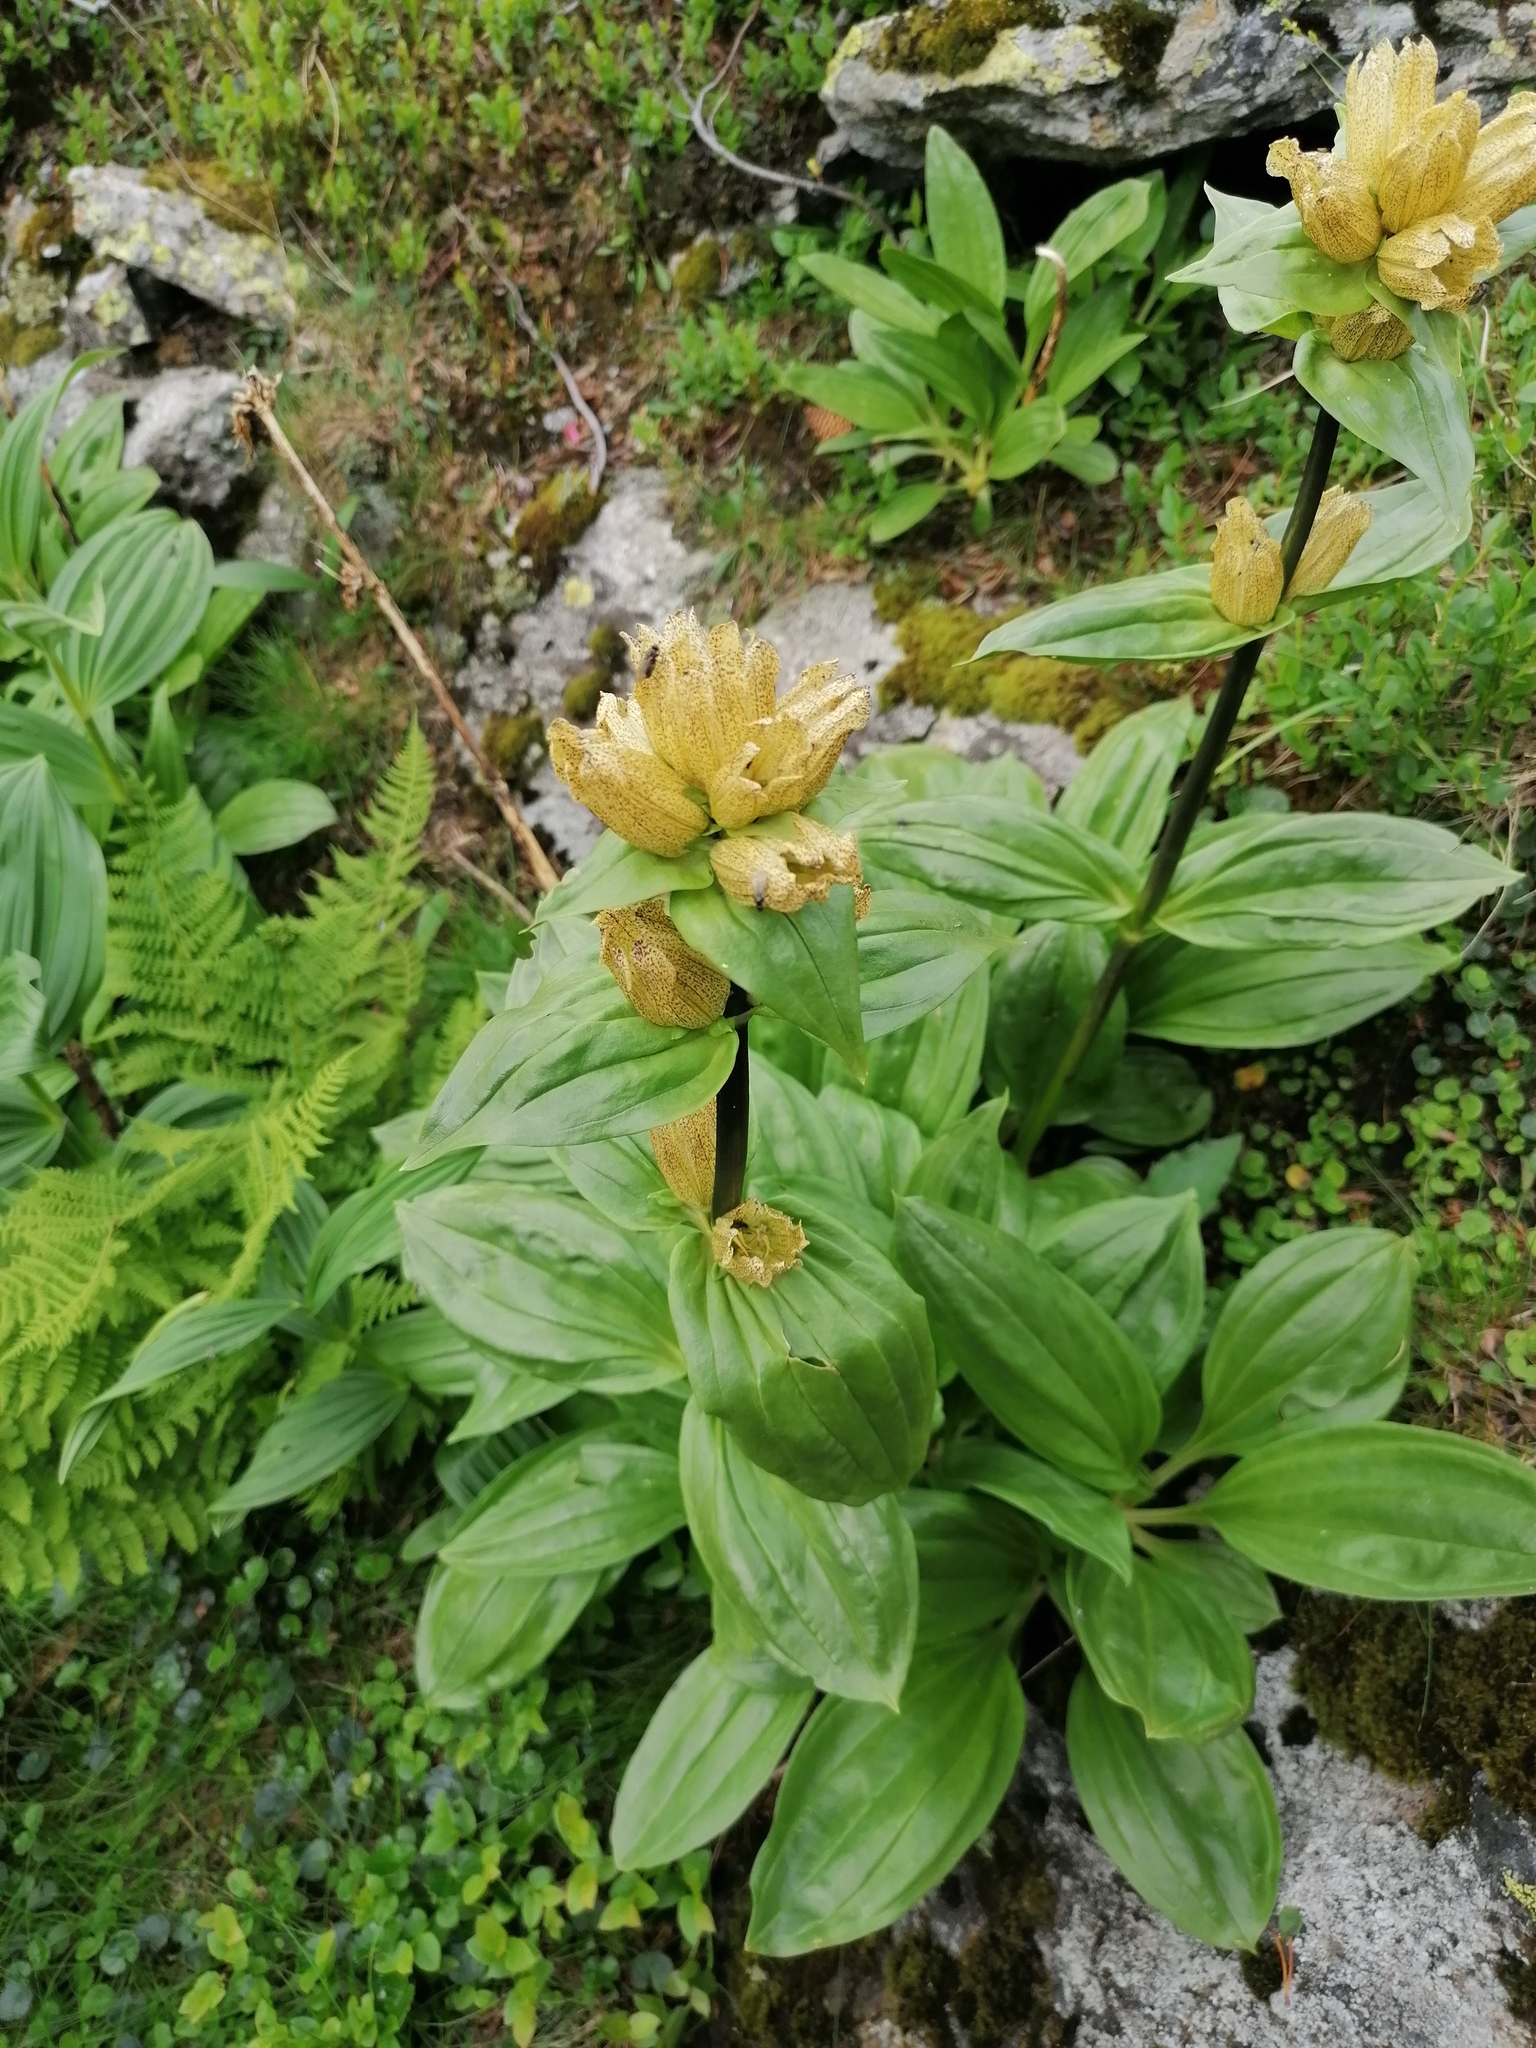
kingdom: Plantae
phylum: Tracheophyta
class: Magnoliopsida
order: Gentianales
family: Gentianaceae
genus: Gentiana
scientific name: Gentiana punctata
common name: Spotted gentian
